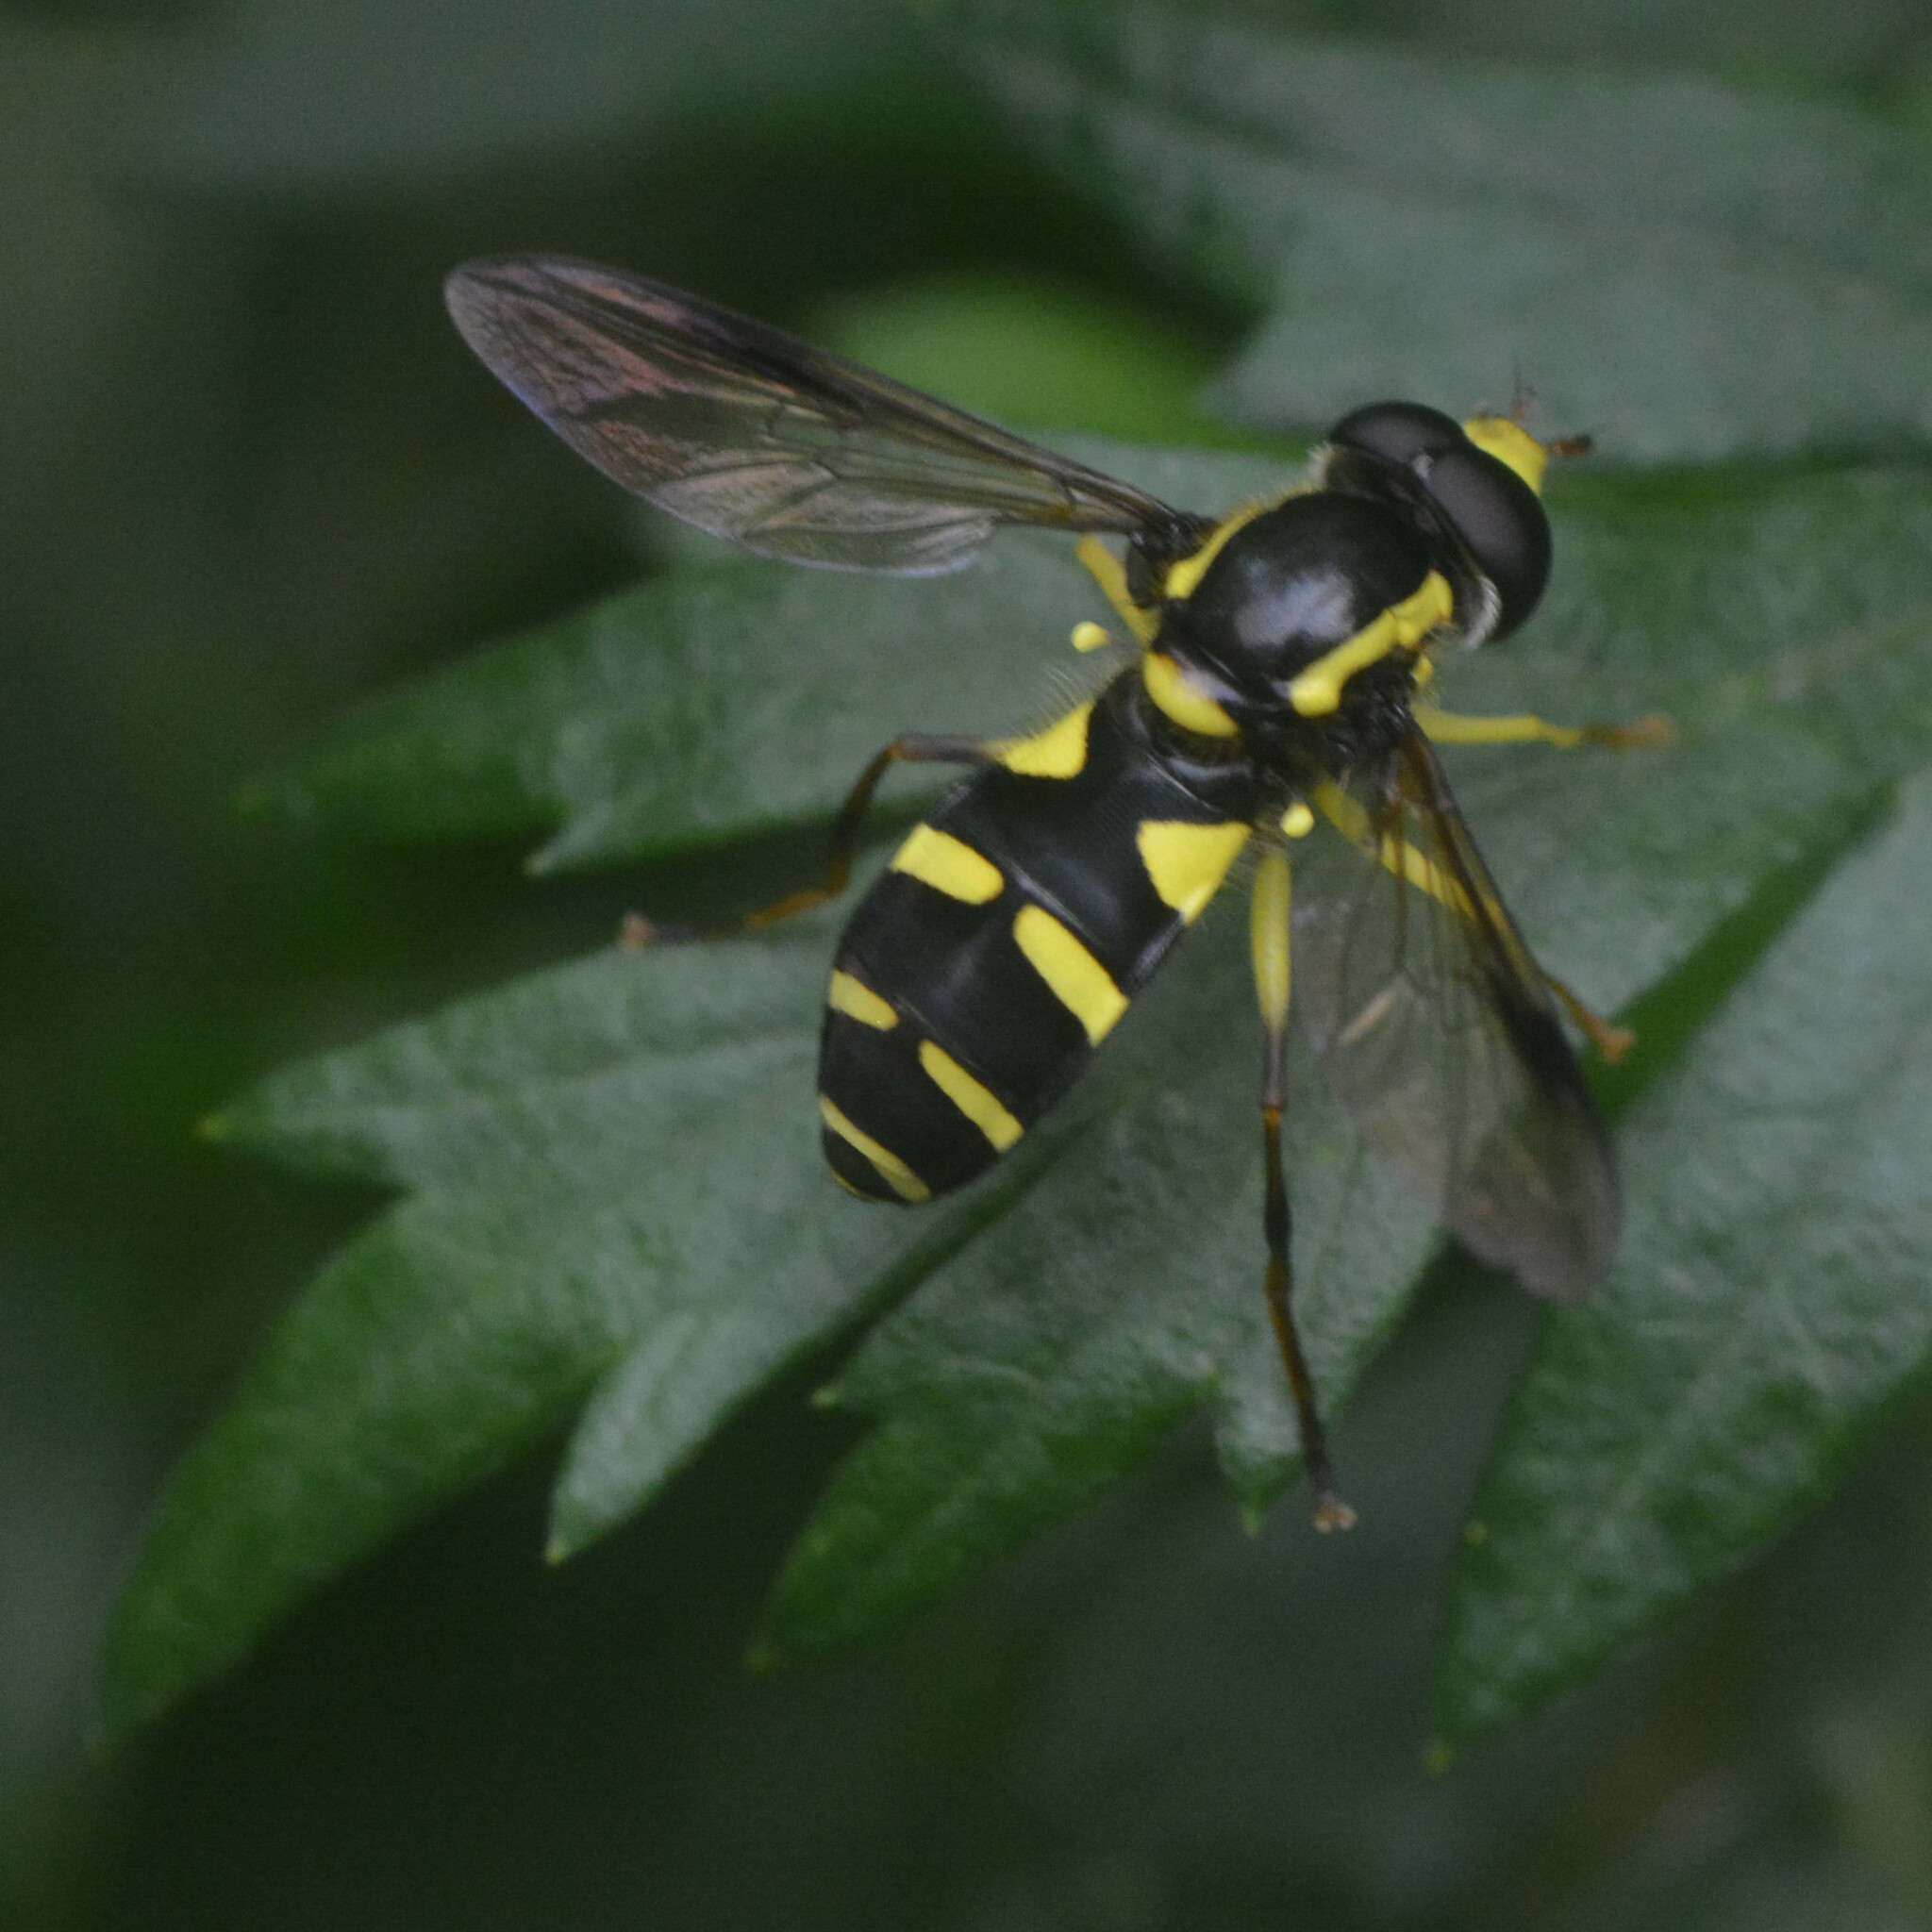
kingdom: Animalia
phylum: Arthropoda
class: Insecta
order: Diptera
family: Syrphidae
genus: Philhelius
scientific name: Philhelius pedissequum
